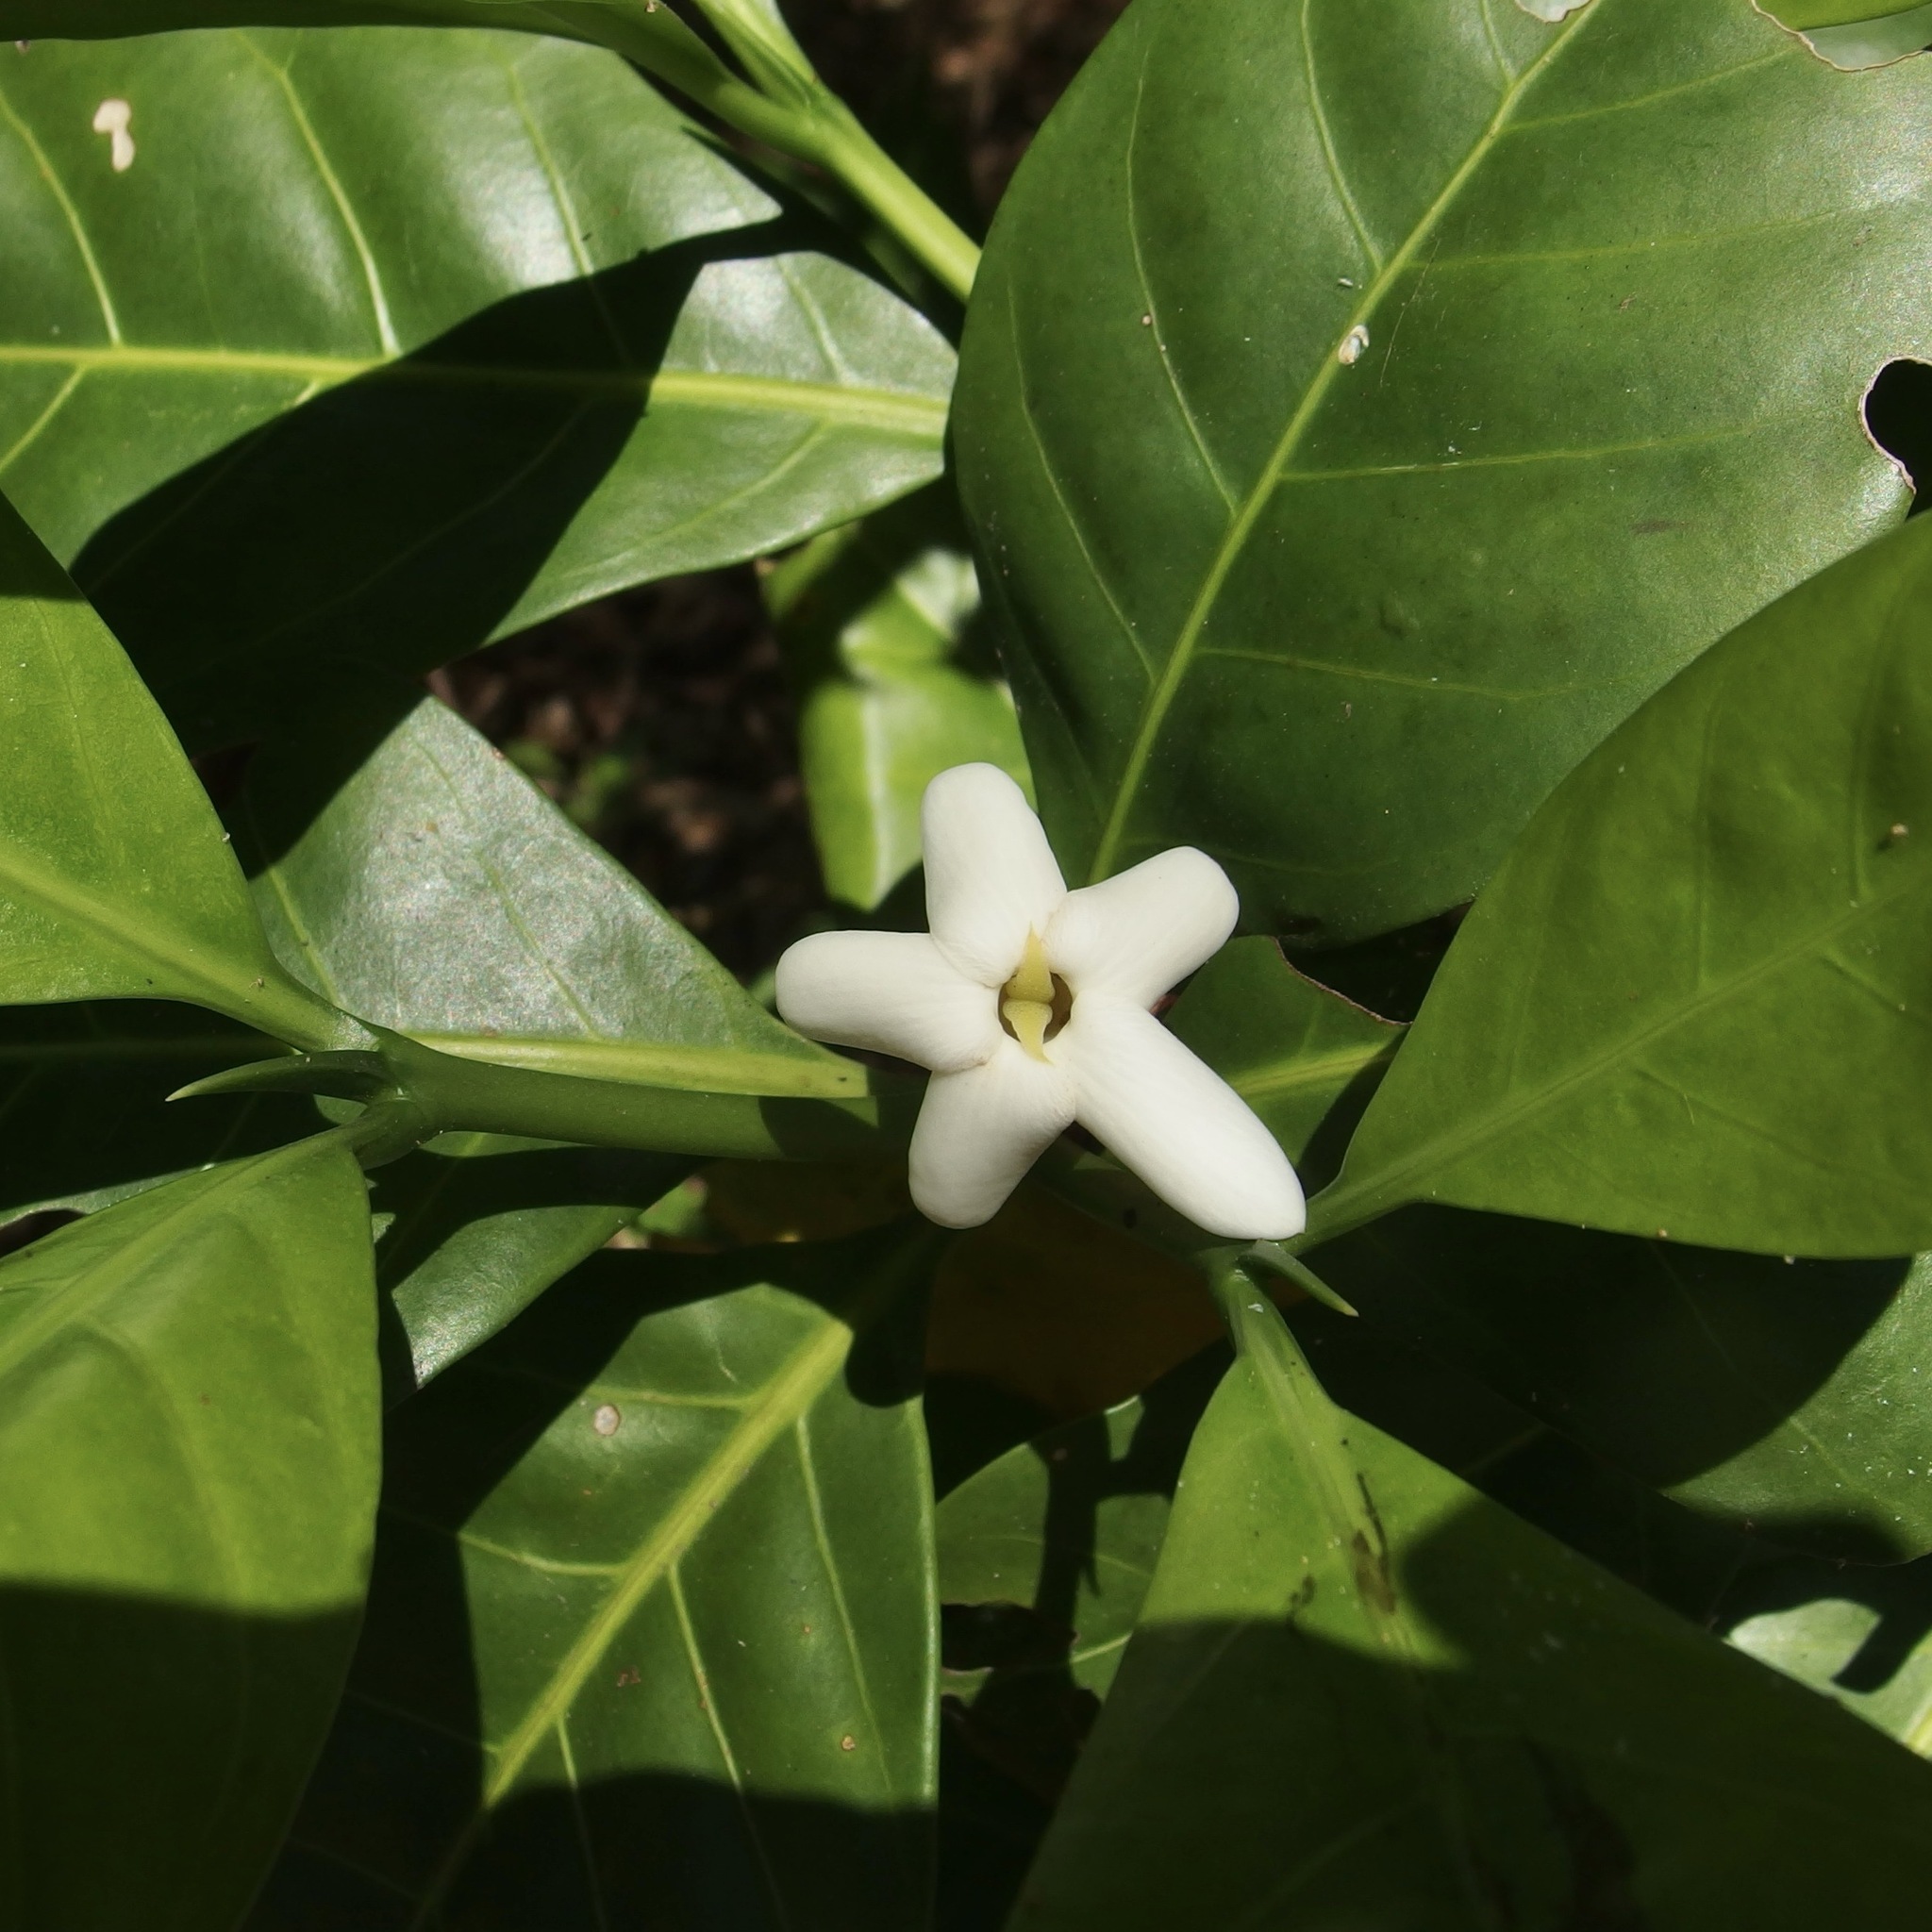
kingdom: Plantae
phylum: Tracheophyta
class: Magnoliopsida
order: Gentianales
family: Rubiaceae
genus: Atractocarpus
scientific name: Atractocarpus fitzalanii
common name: Randia
